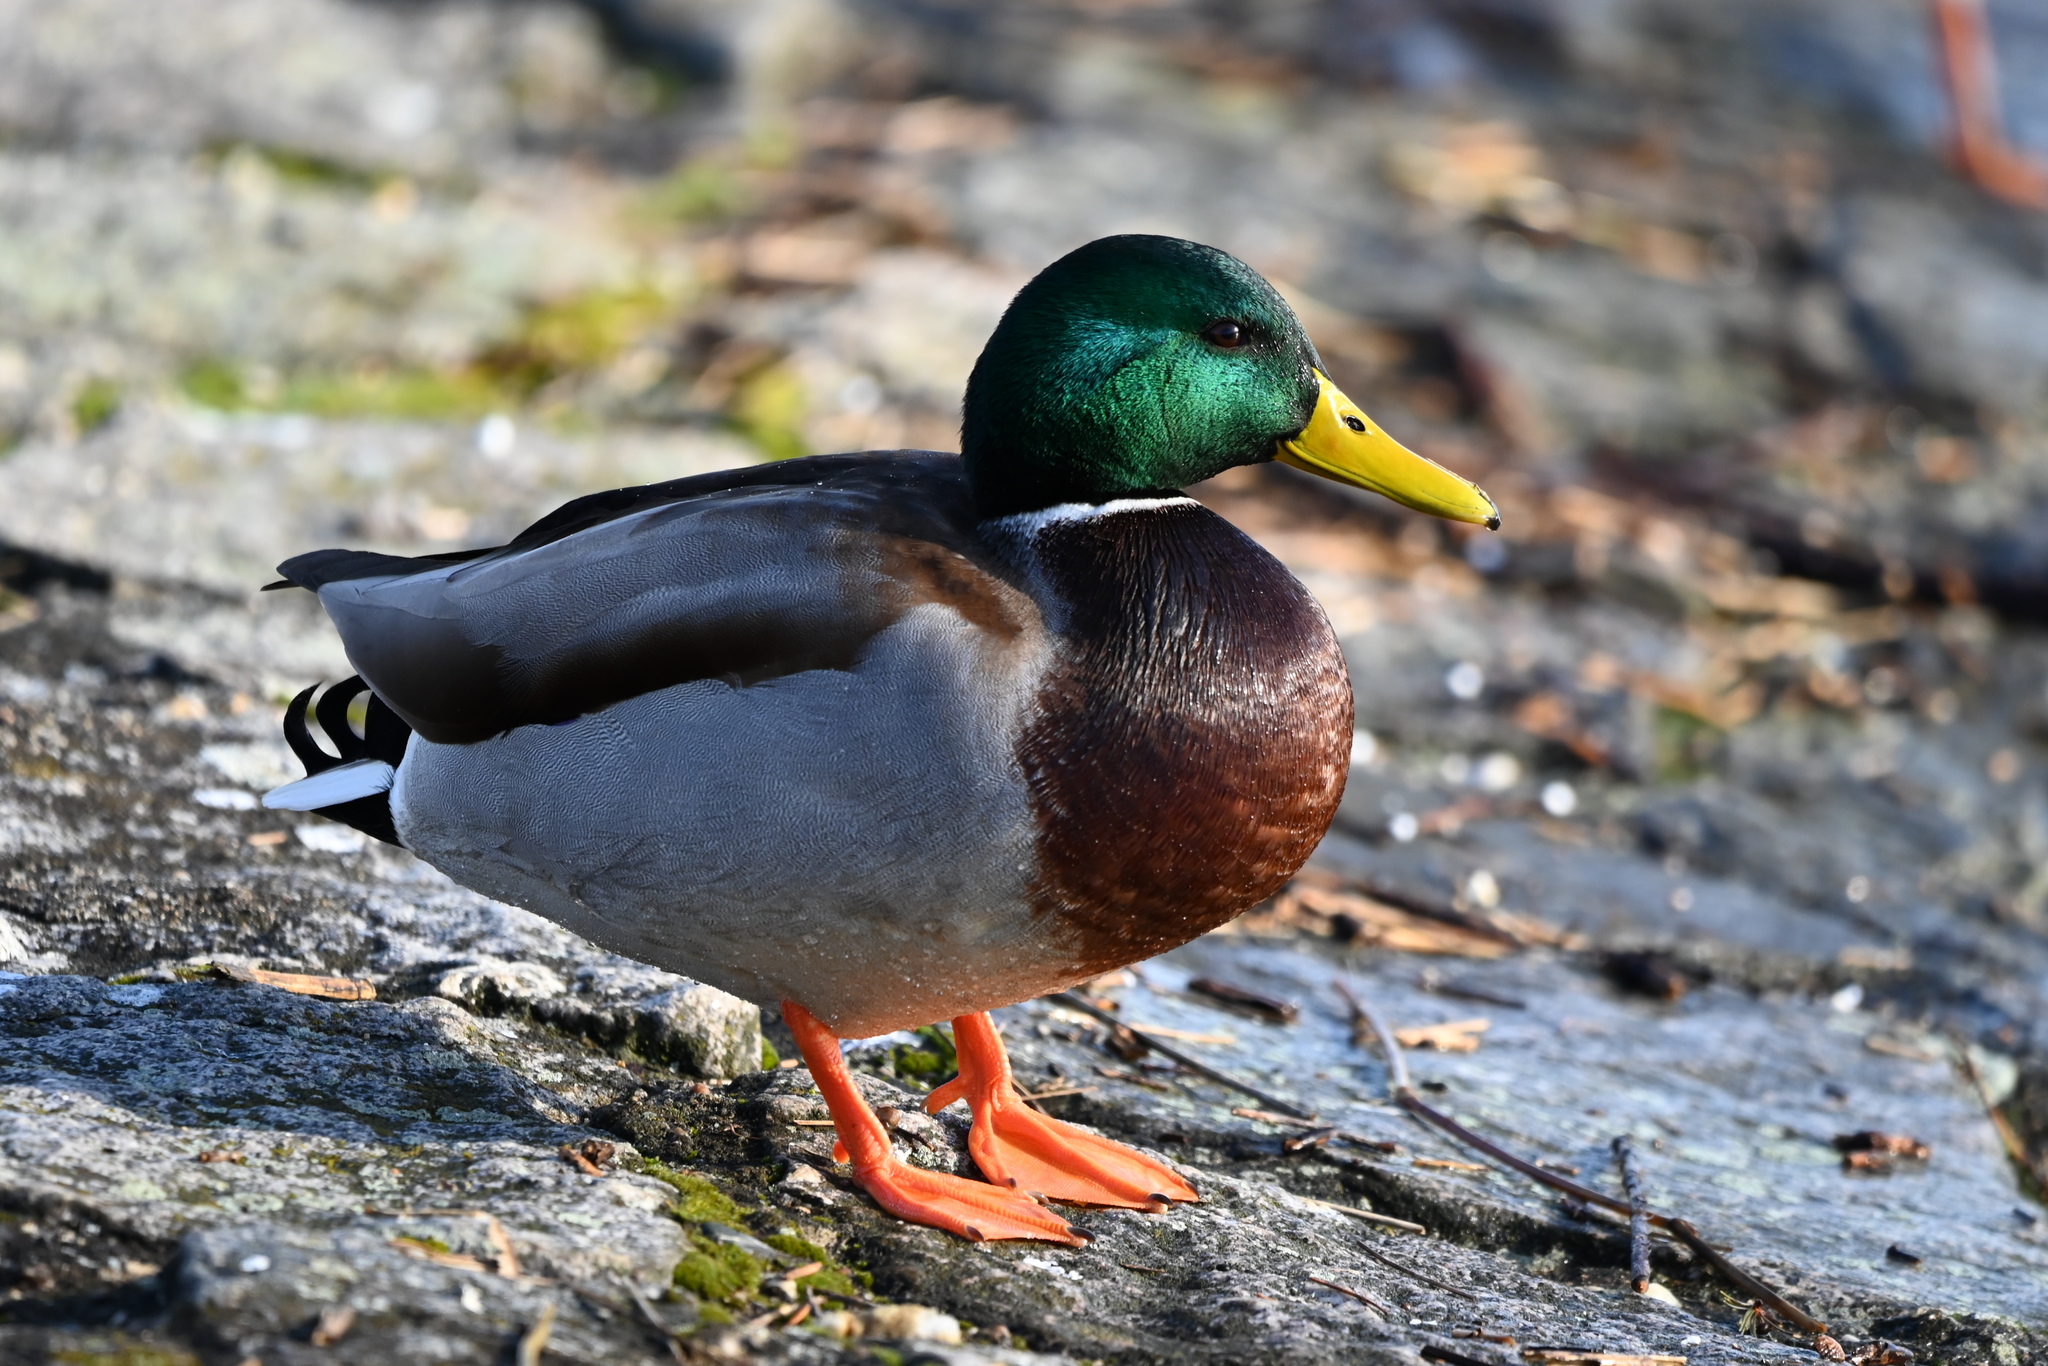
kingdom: Animalia
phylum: Chordata
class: Aves
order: Anseriformes
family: Anatidae
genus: Anas
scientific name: Anas platyrhynchos
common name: Mallard
